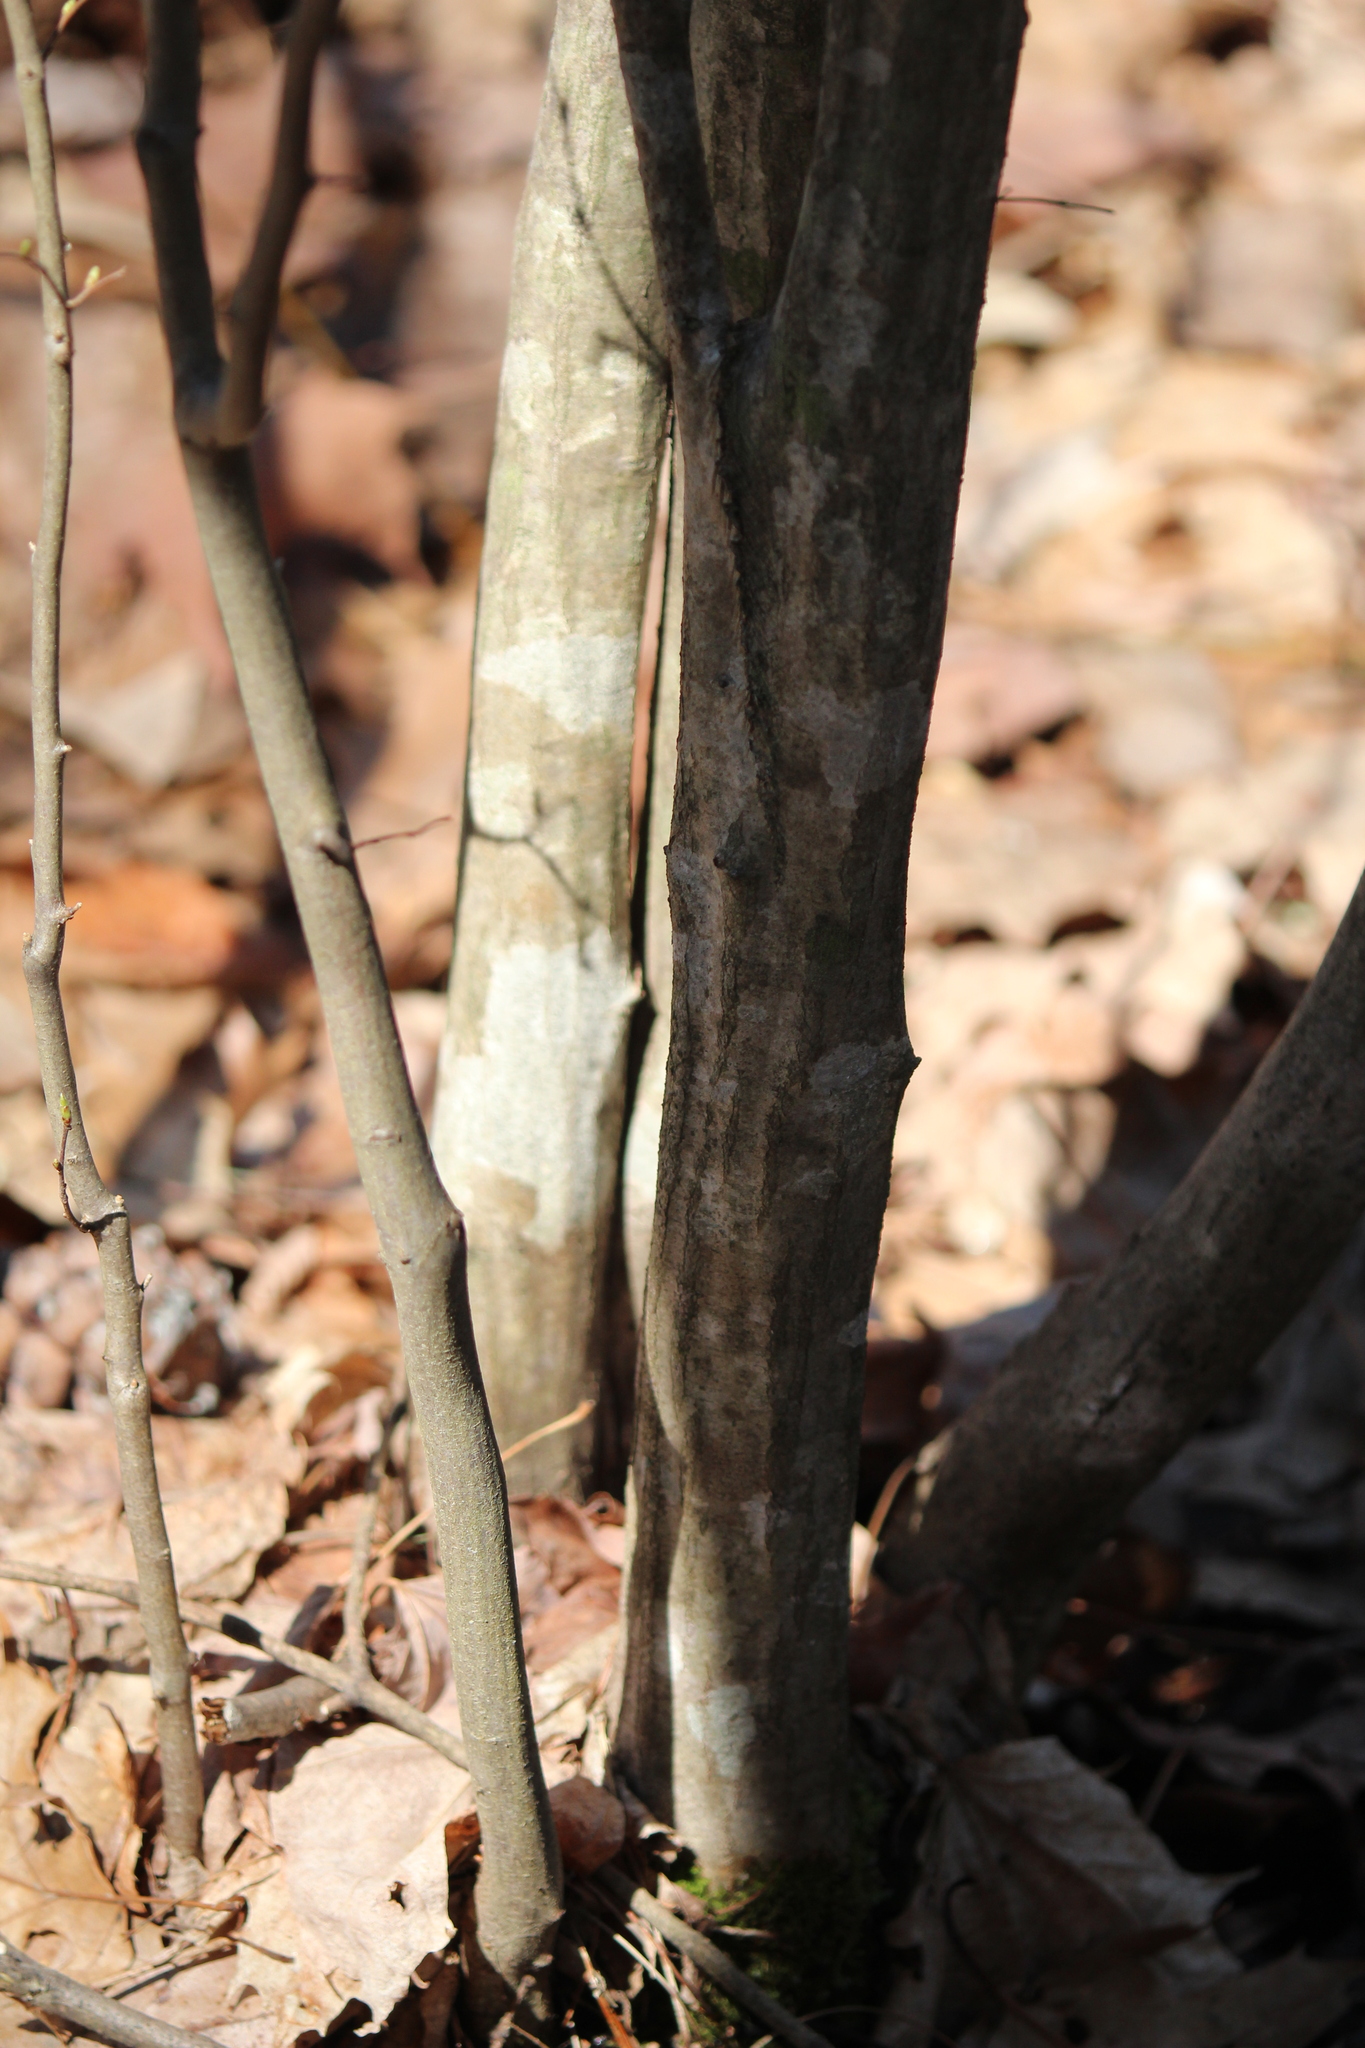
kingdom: Plantae
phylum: Tracheophyta
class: Magnoliopsida
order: Fagales
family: Betulaceae
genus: Carpinus
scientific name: Carpinus caroliniana
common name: American hornbeam
